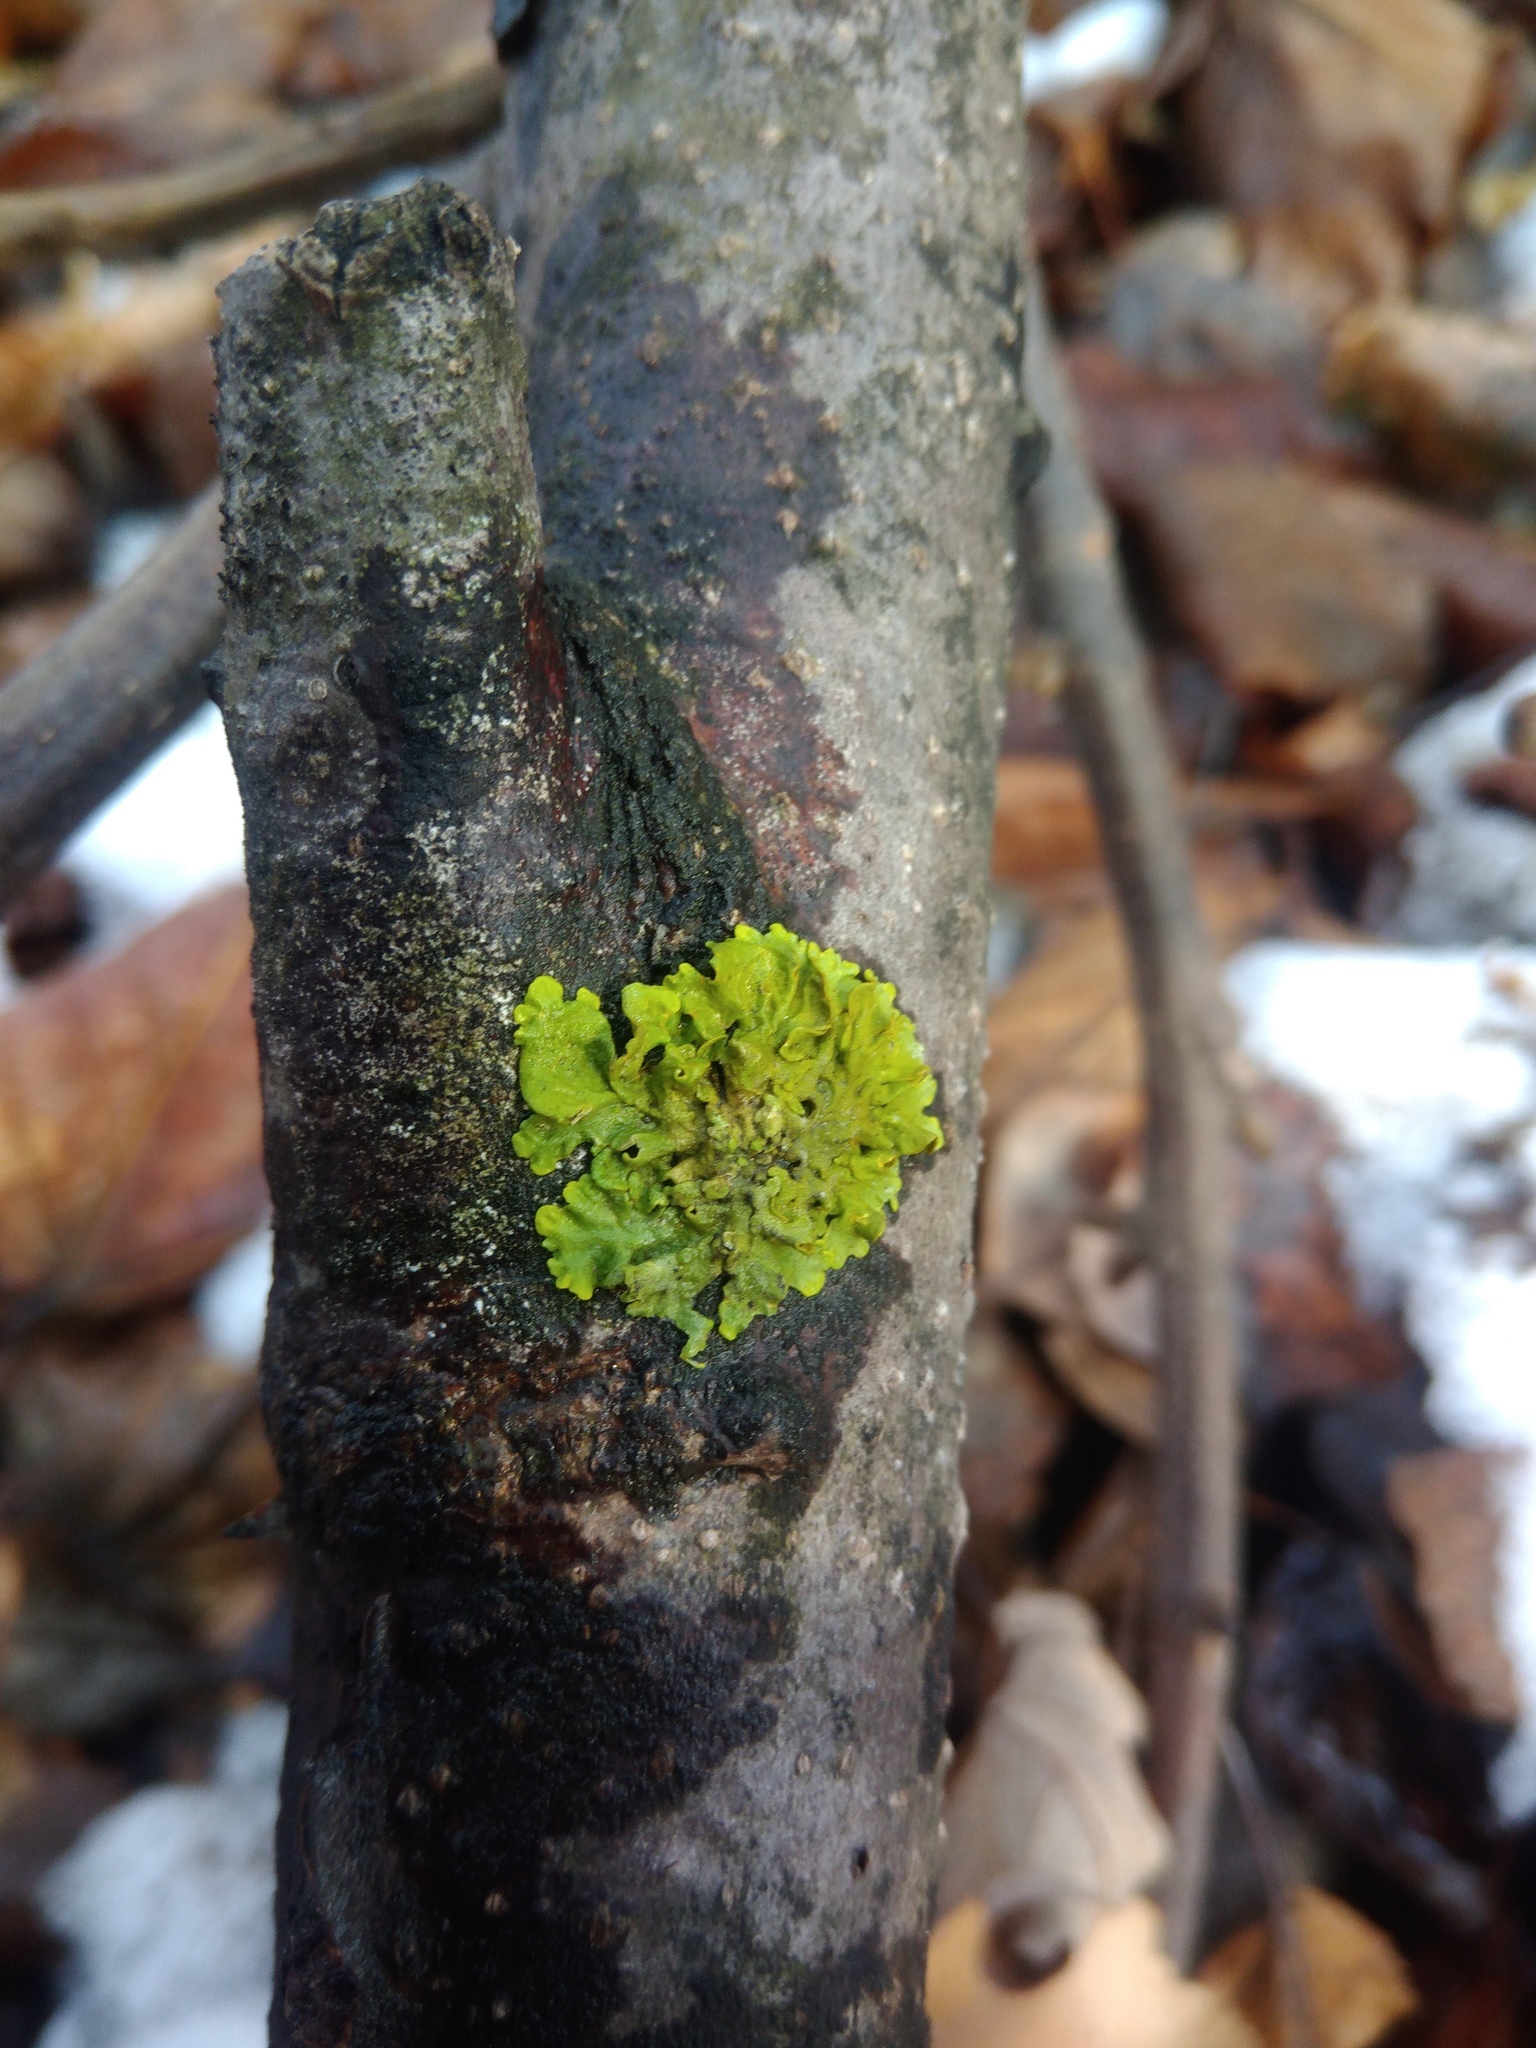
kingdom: Fungi
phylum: Ascomycota
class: Lecanoromycetes
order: Teloschistales
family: Teloschistaceae
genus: Xanthoria
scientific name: Xanthoria parietina
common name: Common orange lichen
